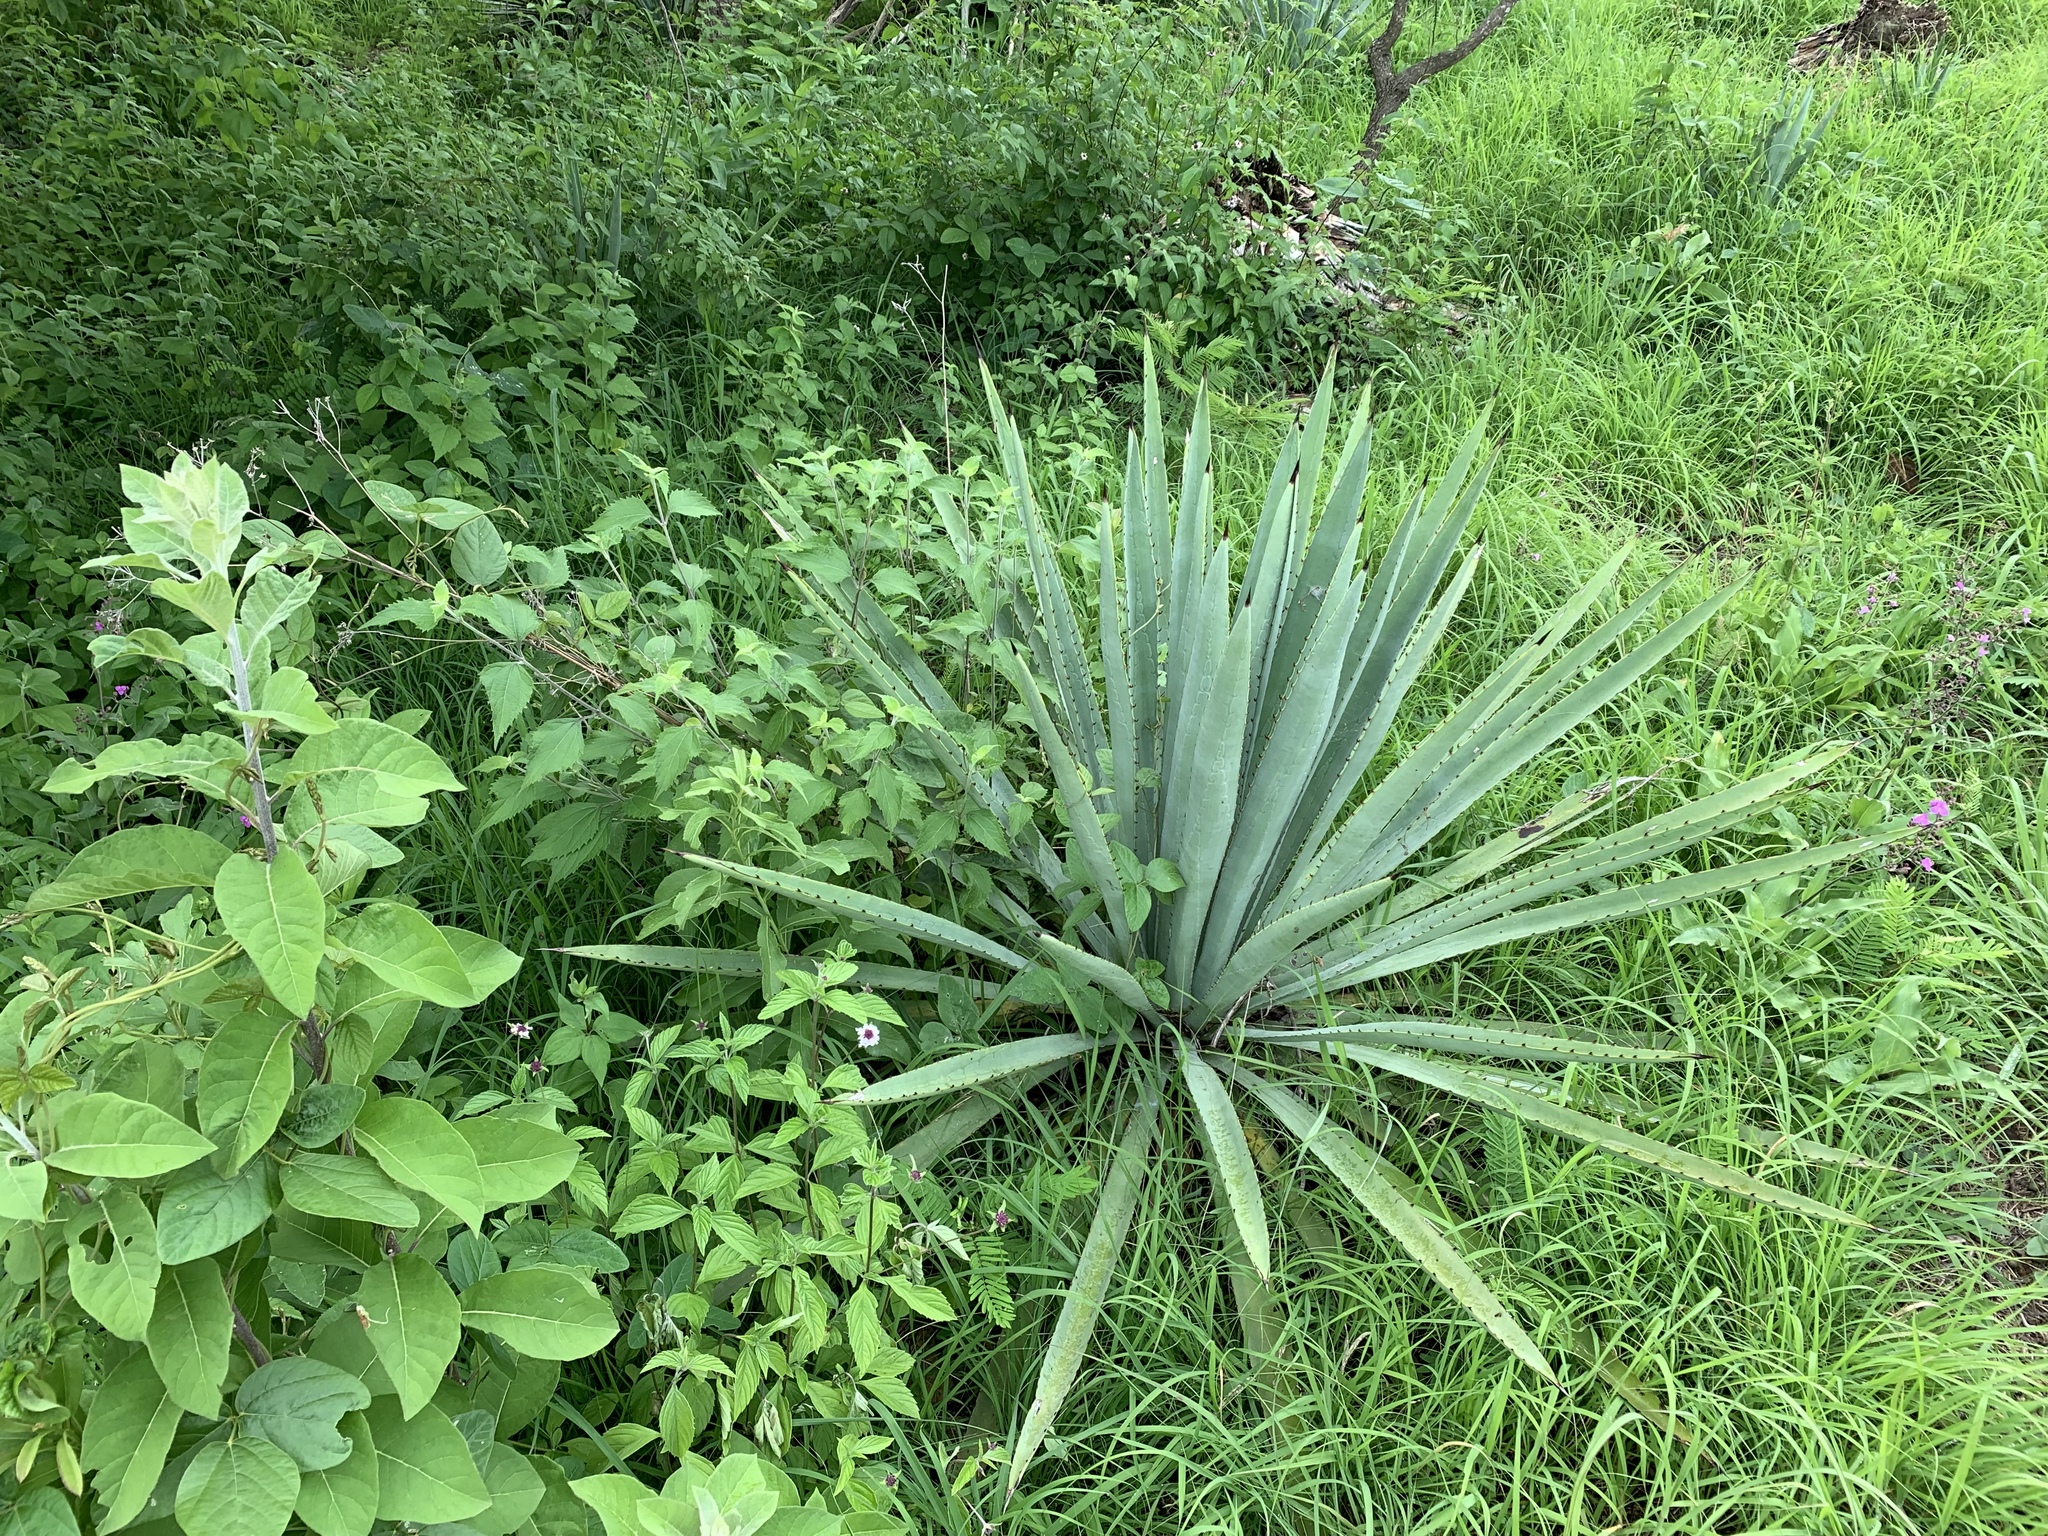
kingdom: Plantae
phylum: Tracheophyta
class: Liliopsida
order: Asparagales
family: Asparagaceae
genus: Agave
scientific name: Agave angustifolia
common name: Mescal agave
